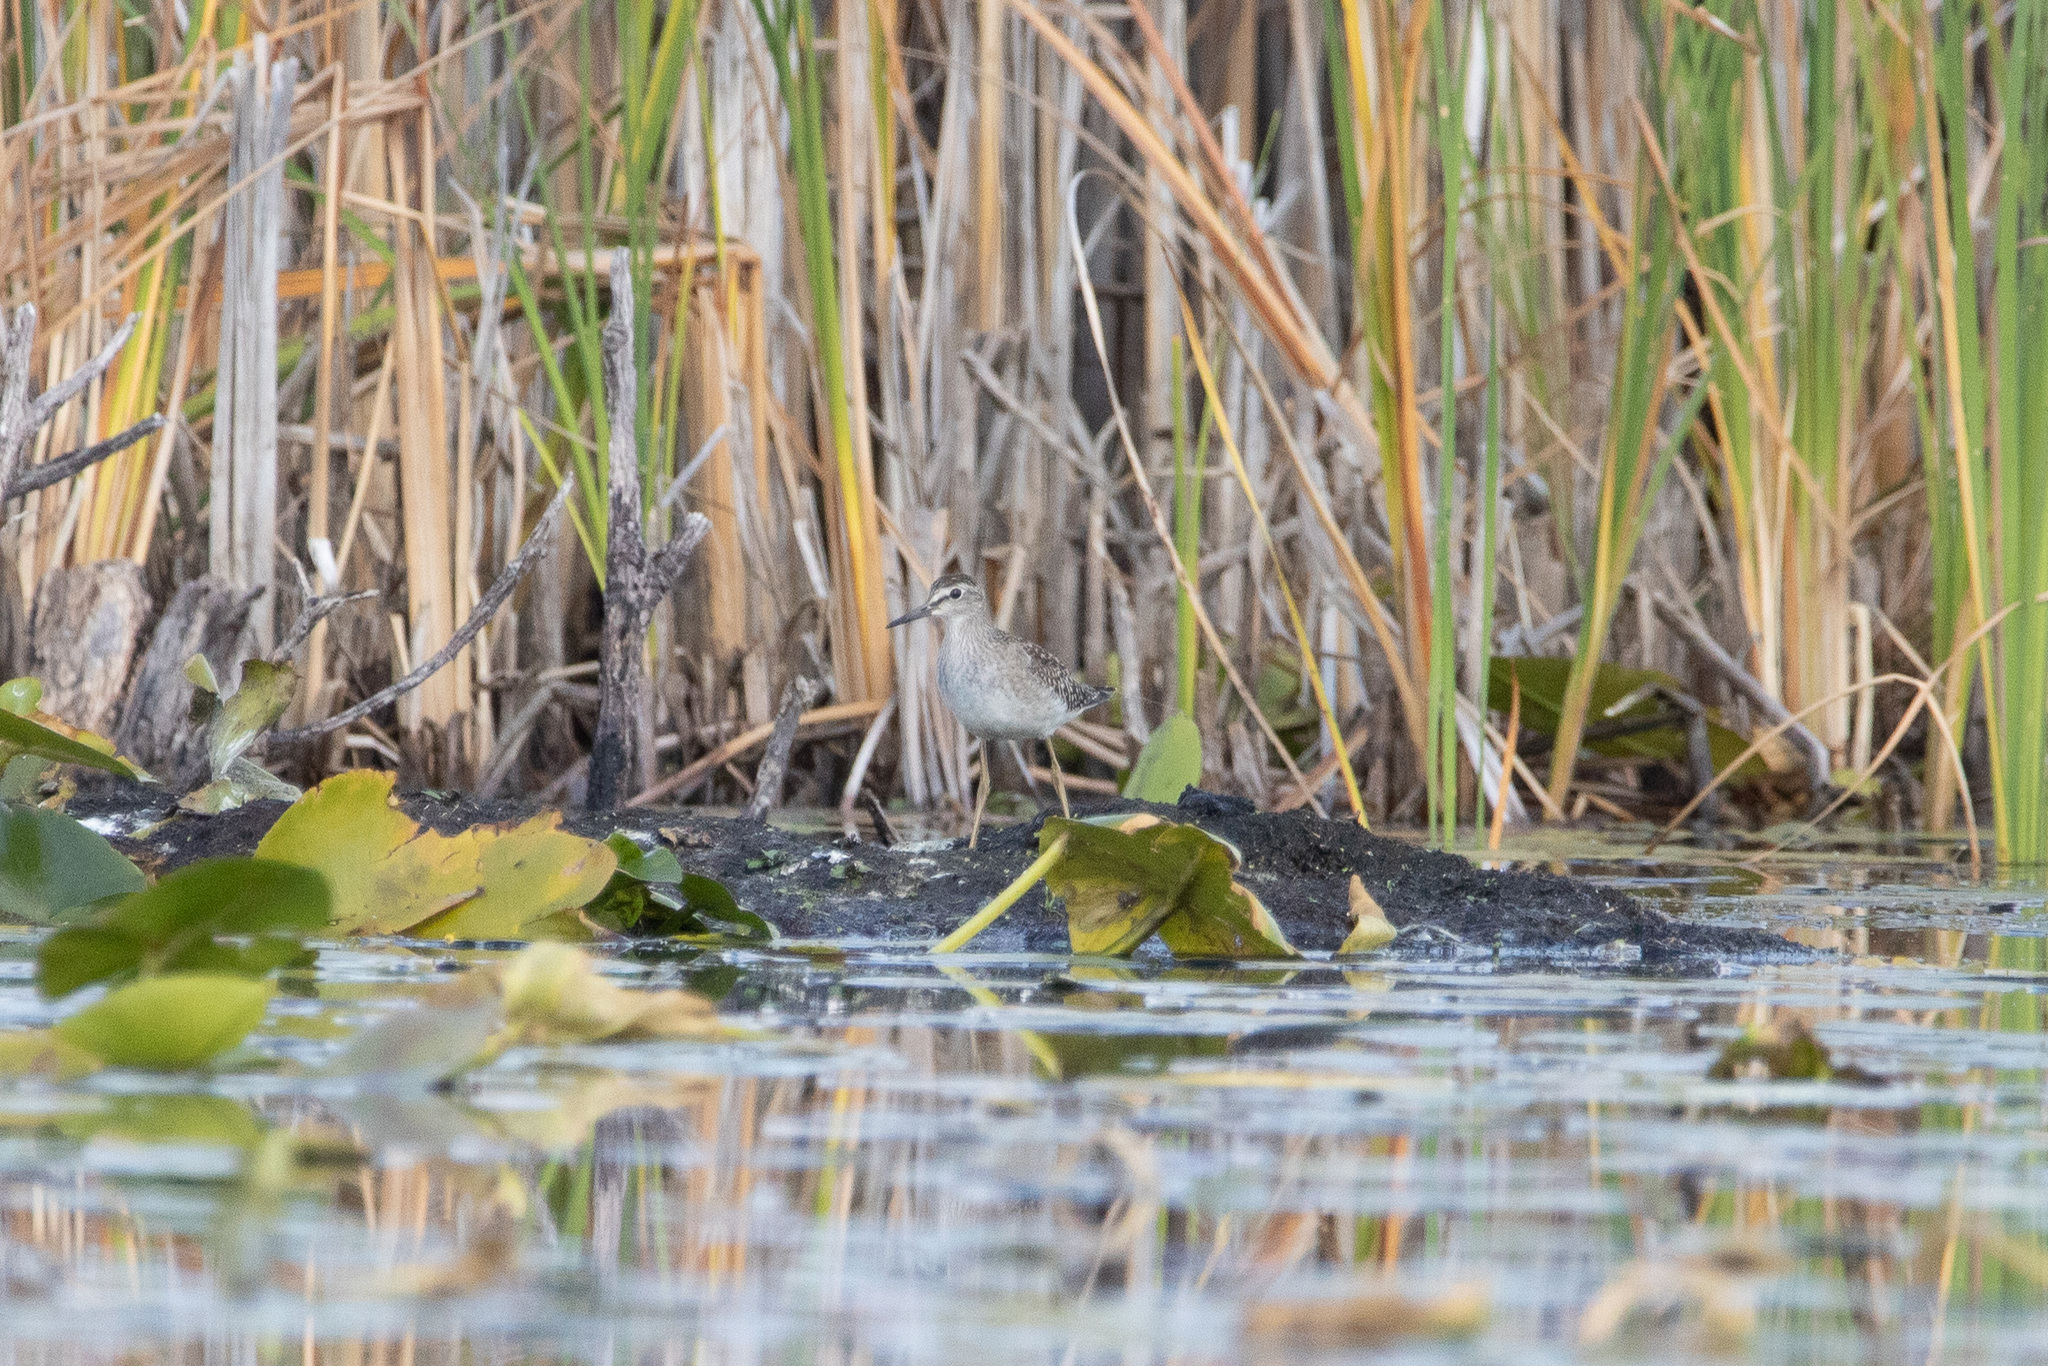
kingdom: Animalia
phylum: Chordata
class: Aves
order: Charadriiformes
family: Scolopacidae
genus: Tringa
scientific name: Tringa glareola
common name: Wood sandpiper
